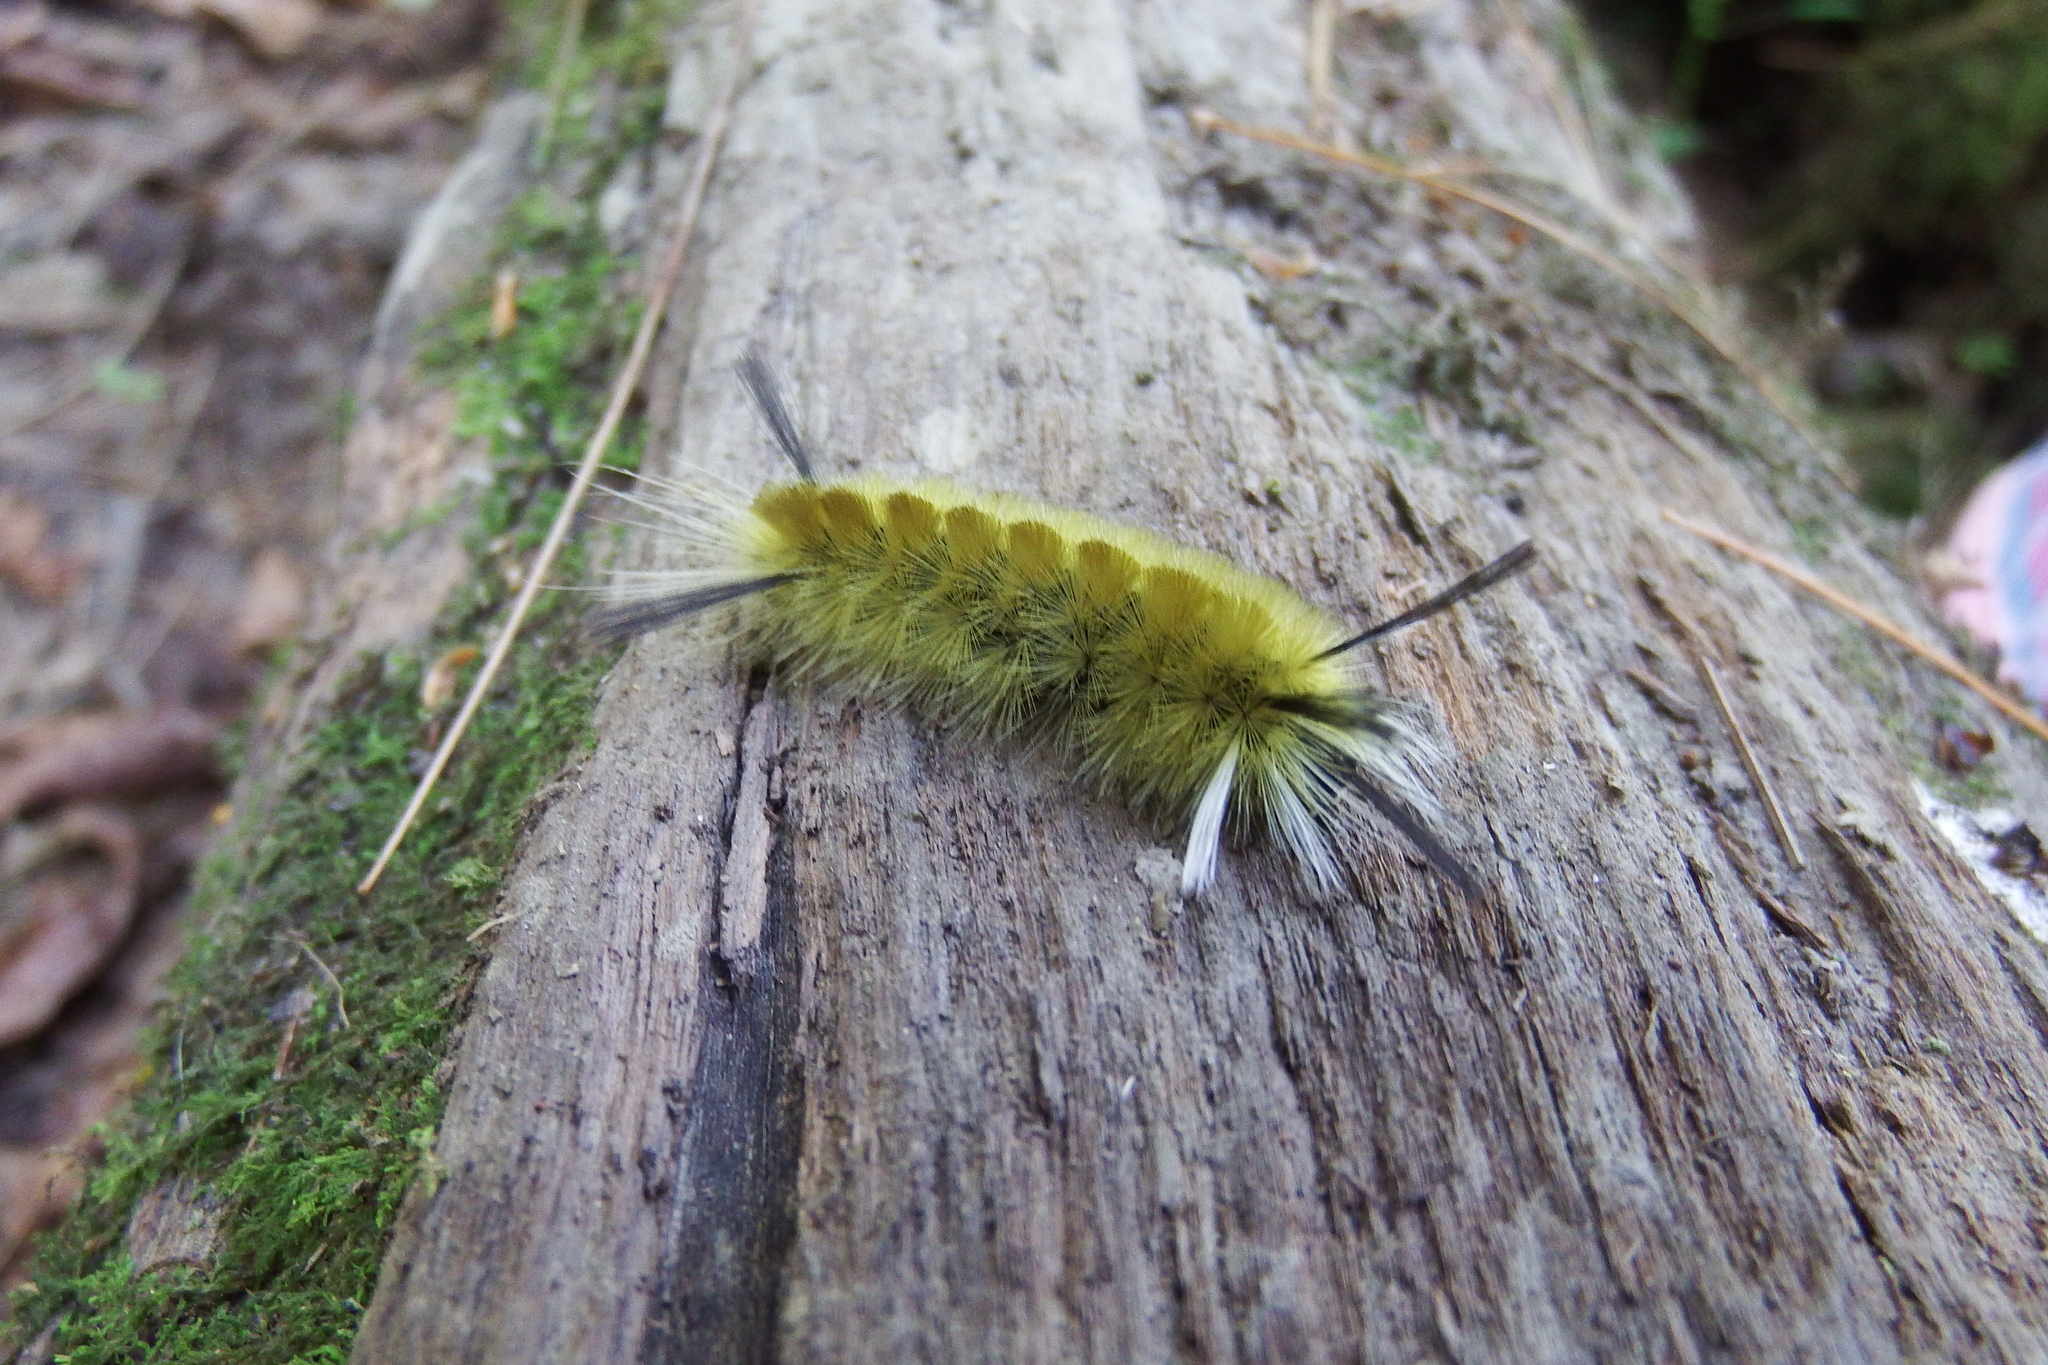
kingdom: Animalia
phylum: Arthropoda
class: Insecta
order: Lepidoptera
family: Erebidae
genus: Halysidota
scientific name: Halysidota tessellaris
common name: Banded tussock moth
